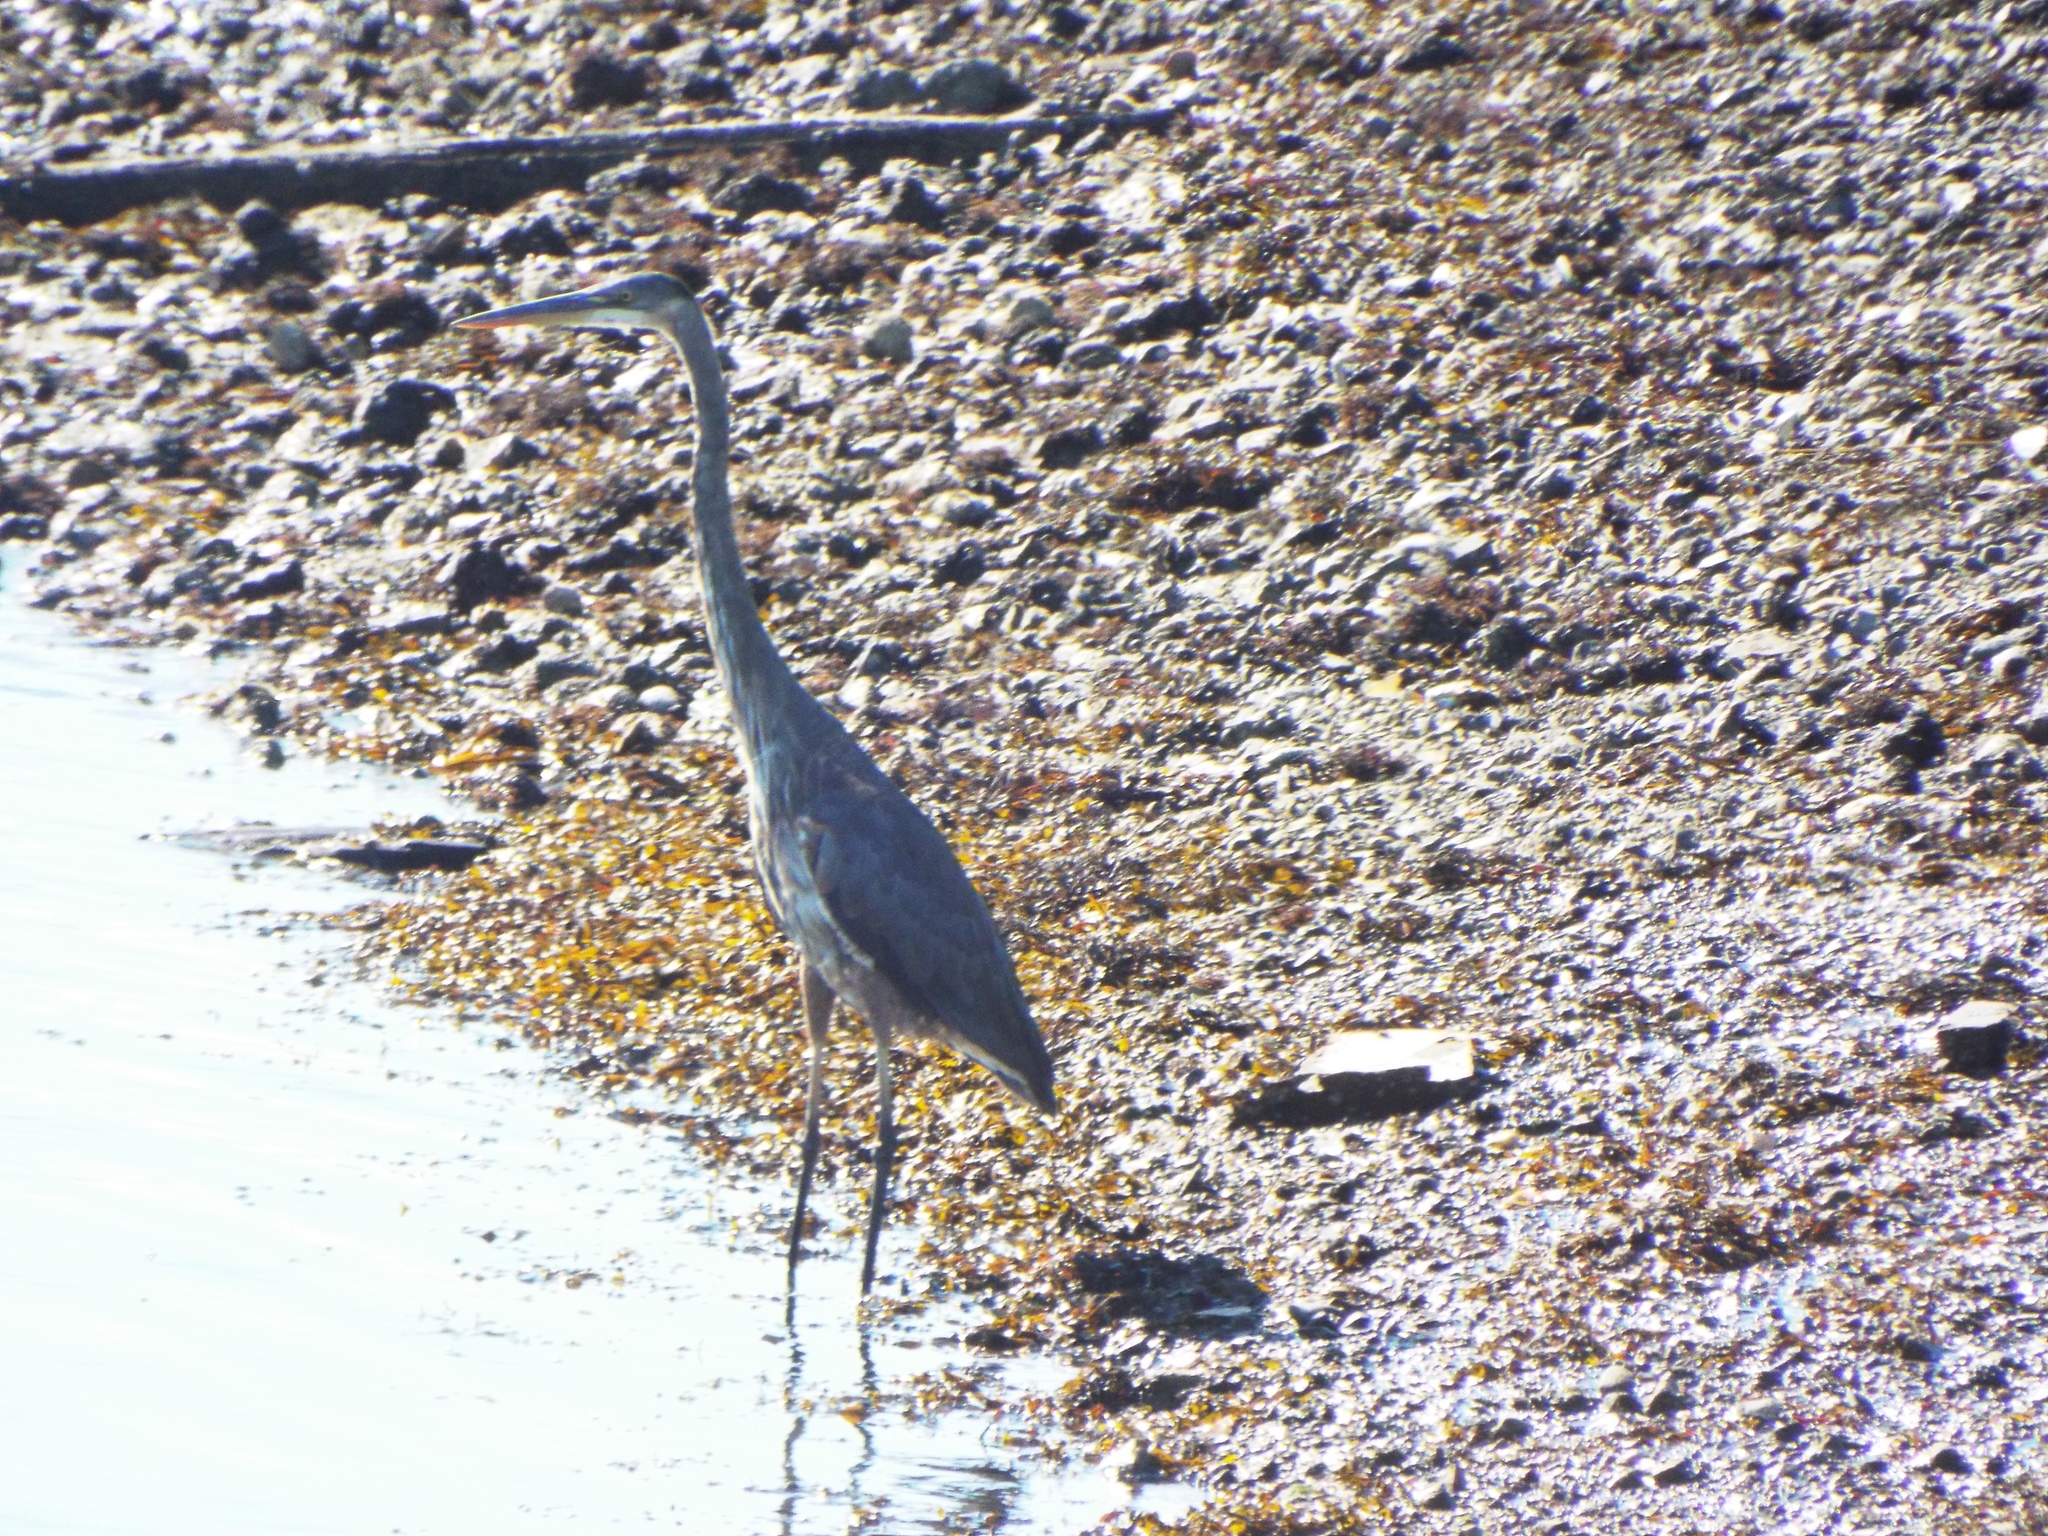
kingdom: Animalia
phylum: Chordata
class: Aves
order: Pelecaniformes
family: Ardeidae
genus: Ardea
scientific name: Ardea herodias
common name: Great blue heron
